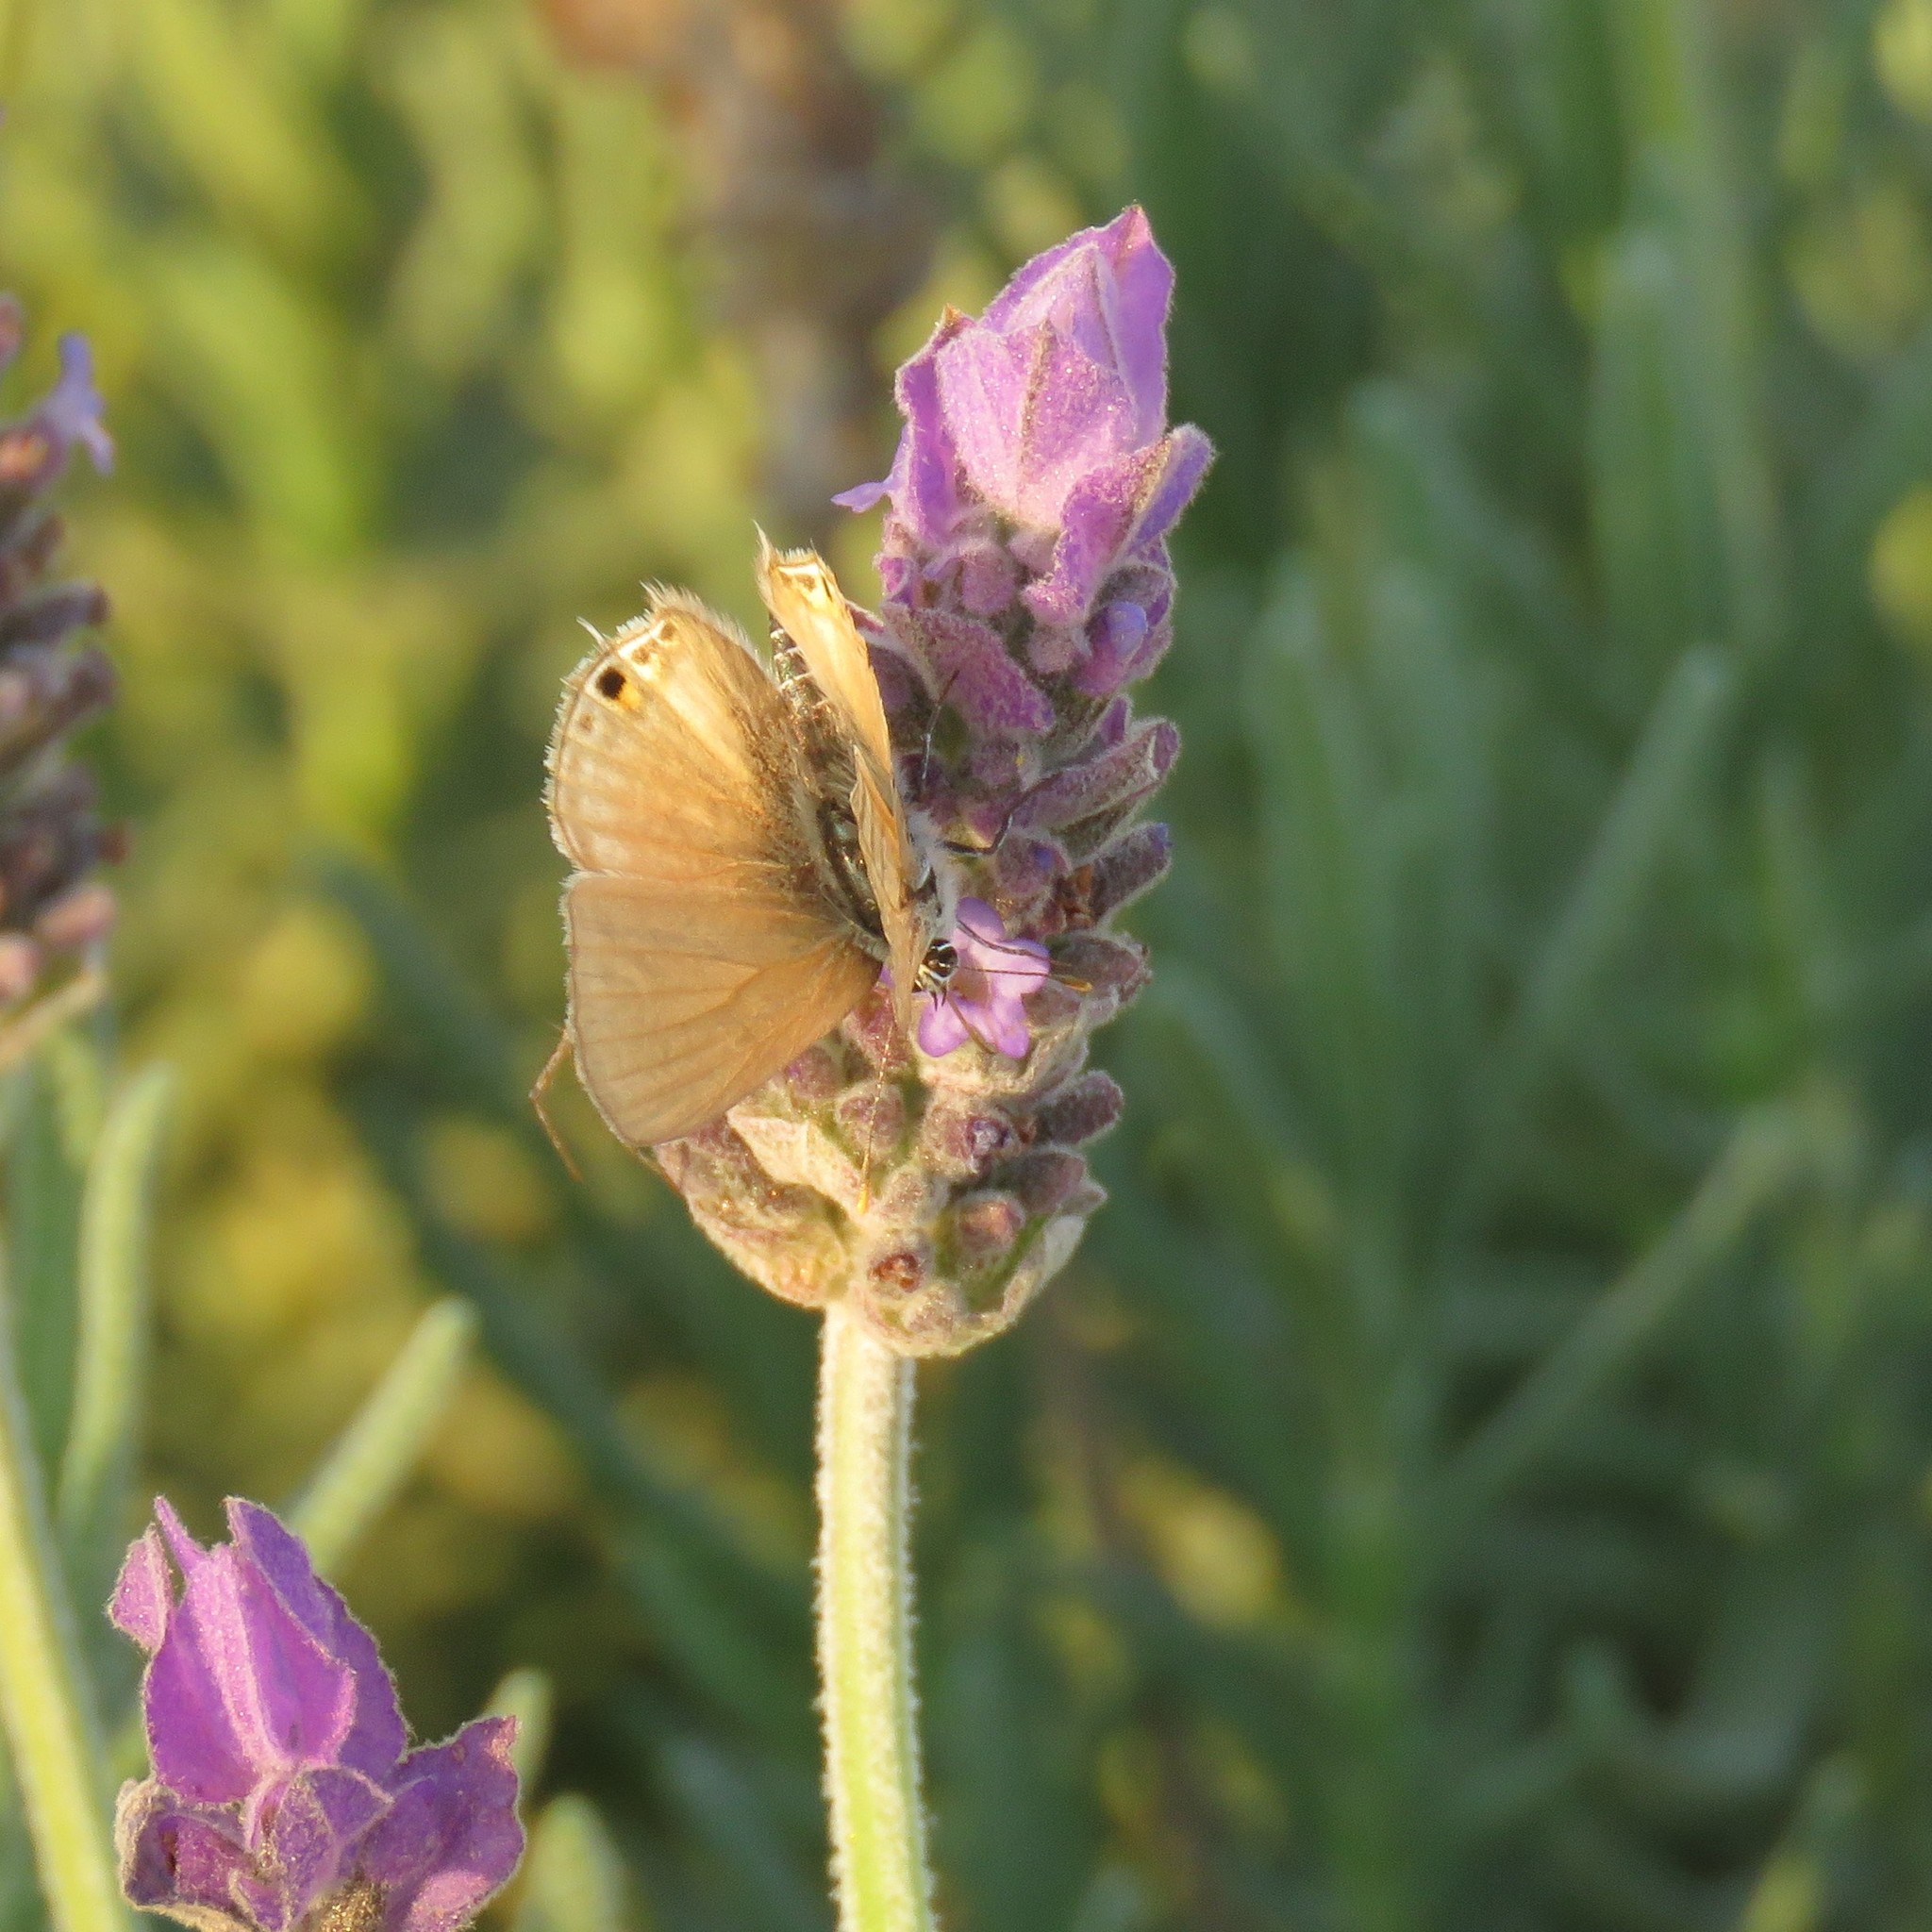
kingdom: Animalia
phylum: Arthropoda
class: Insecta
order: Lepidoptera
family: Lycaenidae
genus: Anthene
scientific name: Anthene amarah
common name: Black-striped hairtail
